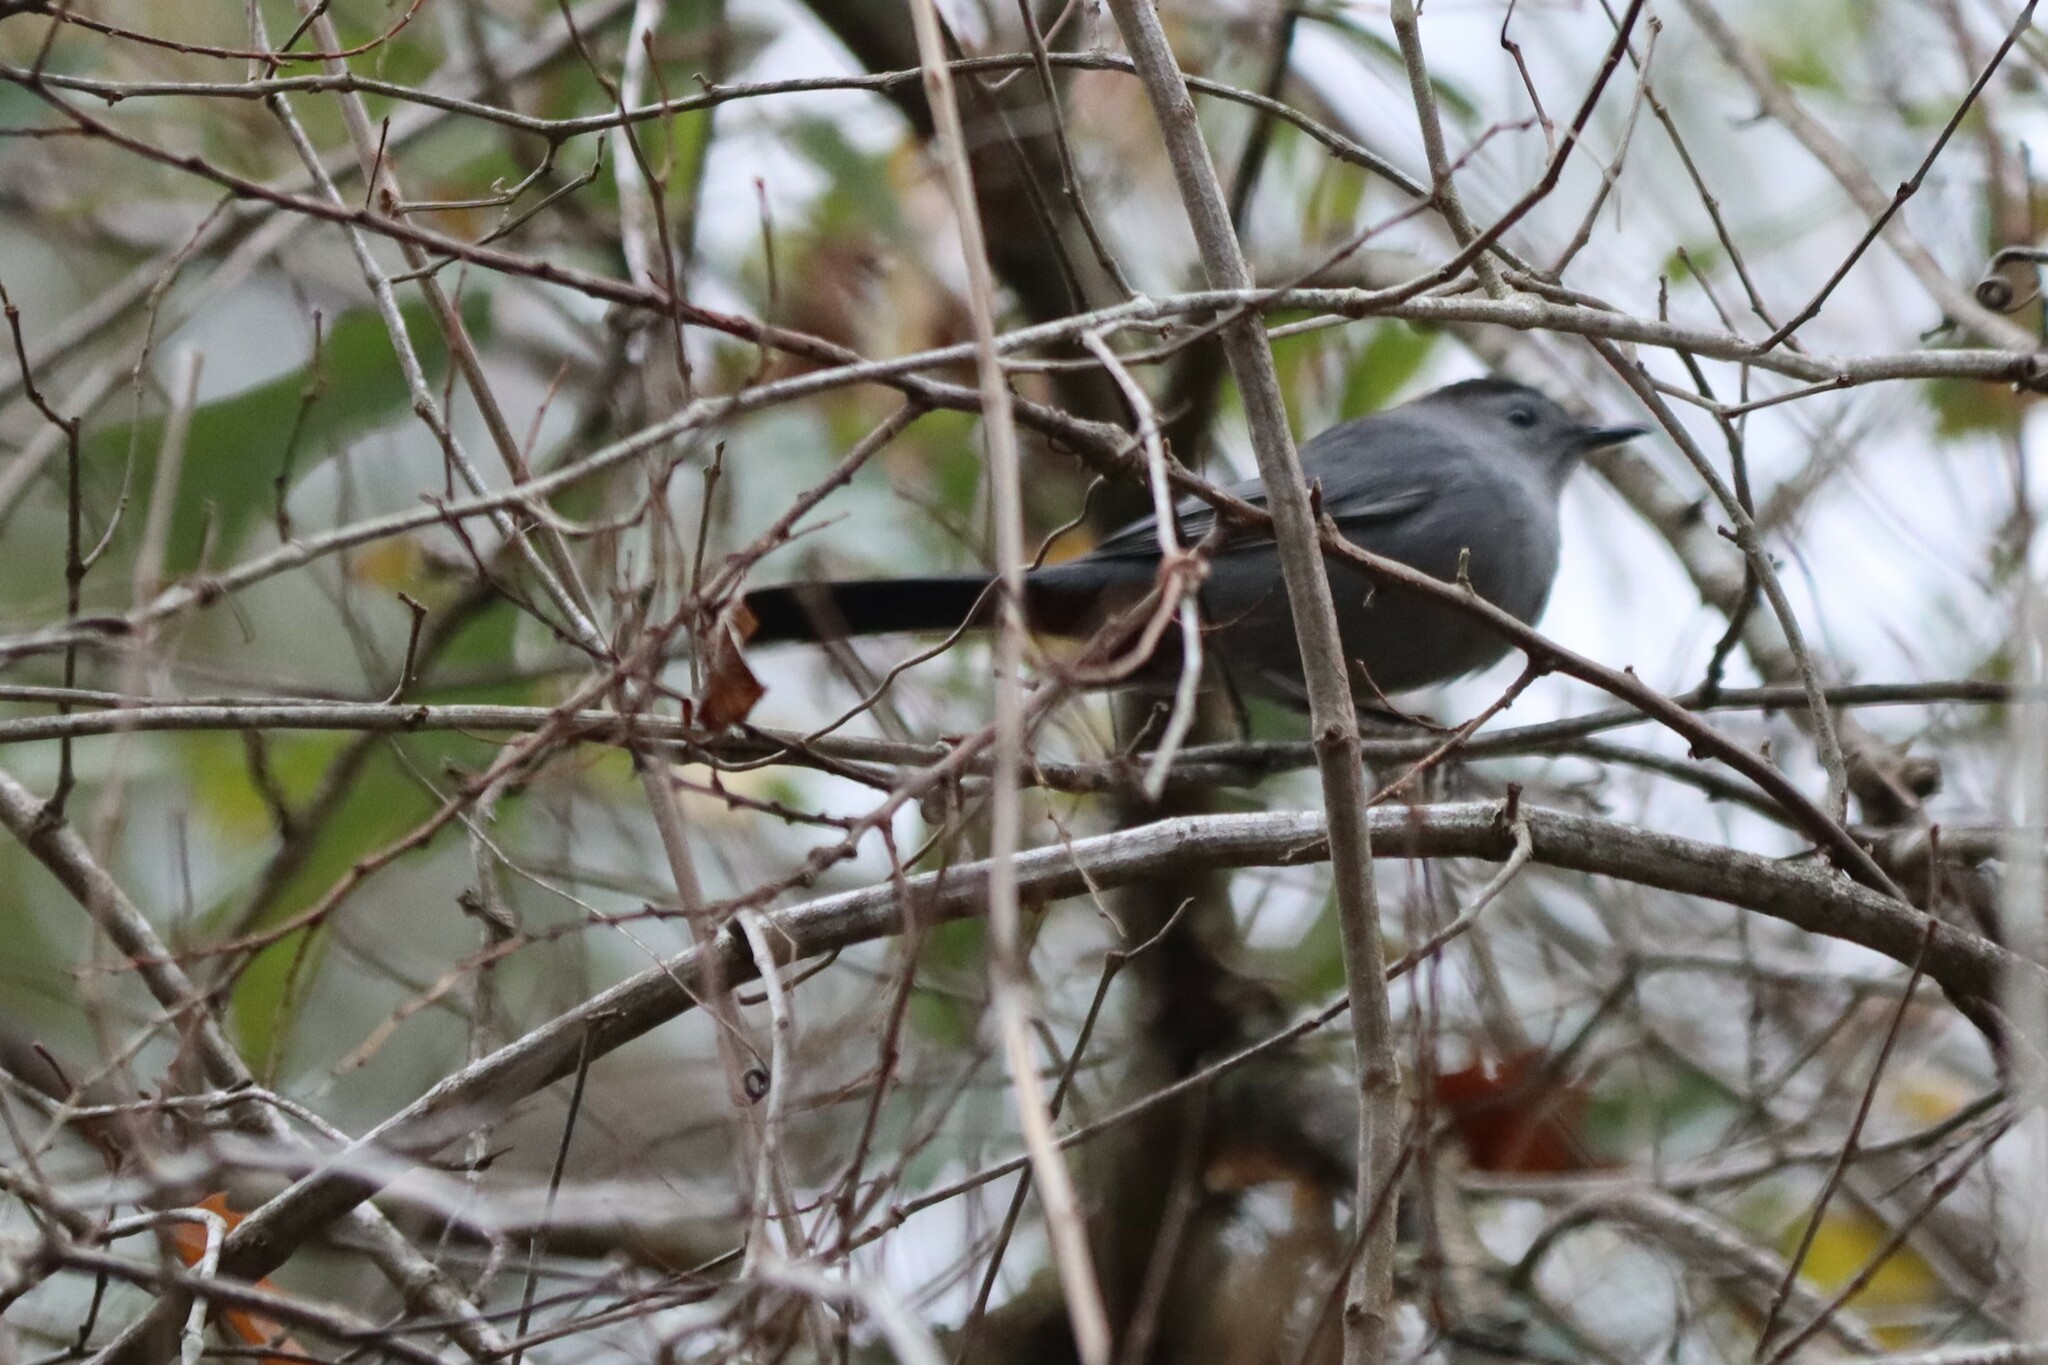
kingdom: Animalia
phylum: Chordata
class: Aves
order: Passeriformes
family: Mimidae
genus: Dumetella
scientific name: Dumetella carolinensis
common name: Gray catbird
